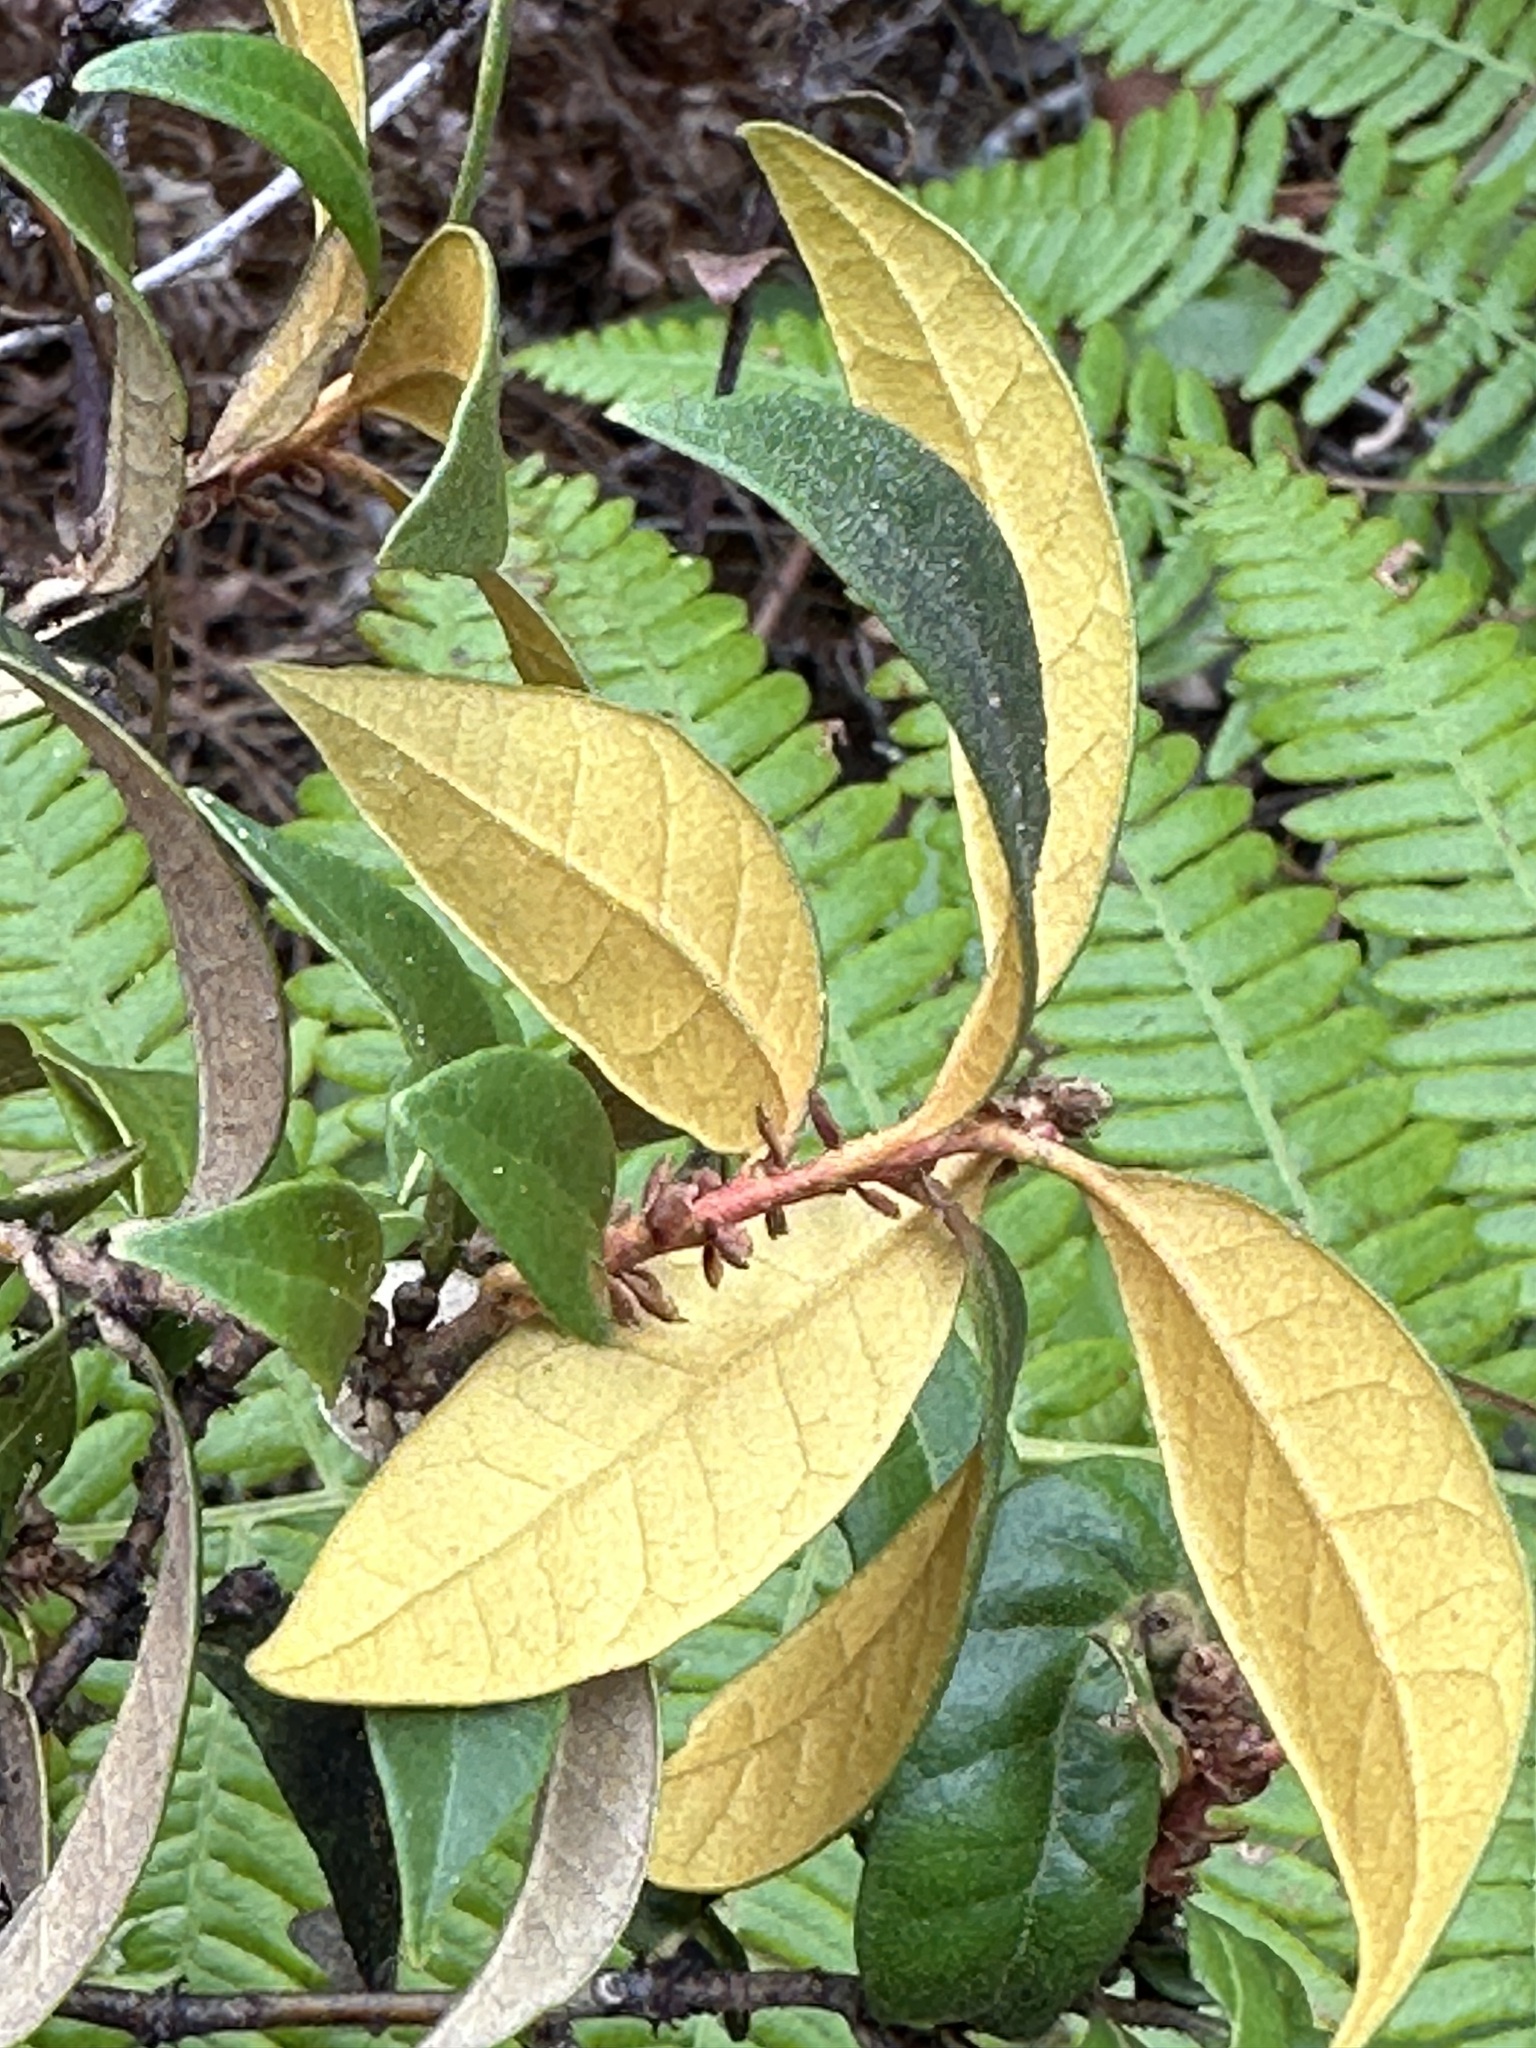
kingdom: Plantae
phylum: Tracheophyta
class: Magnoliopsida
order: Fagales
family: Fagaceae
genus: Chrysolepis
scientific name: Chrysolepis chrysophylla
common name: Giant chinquapin
